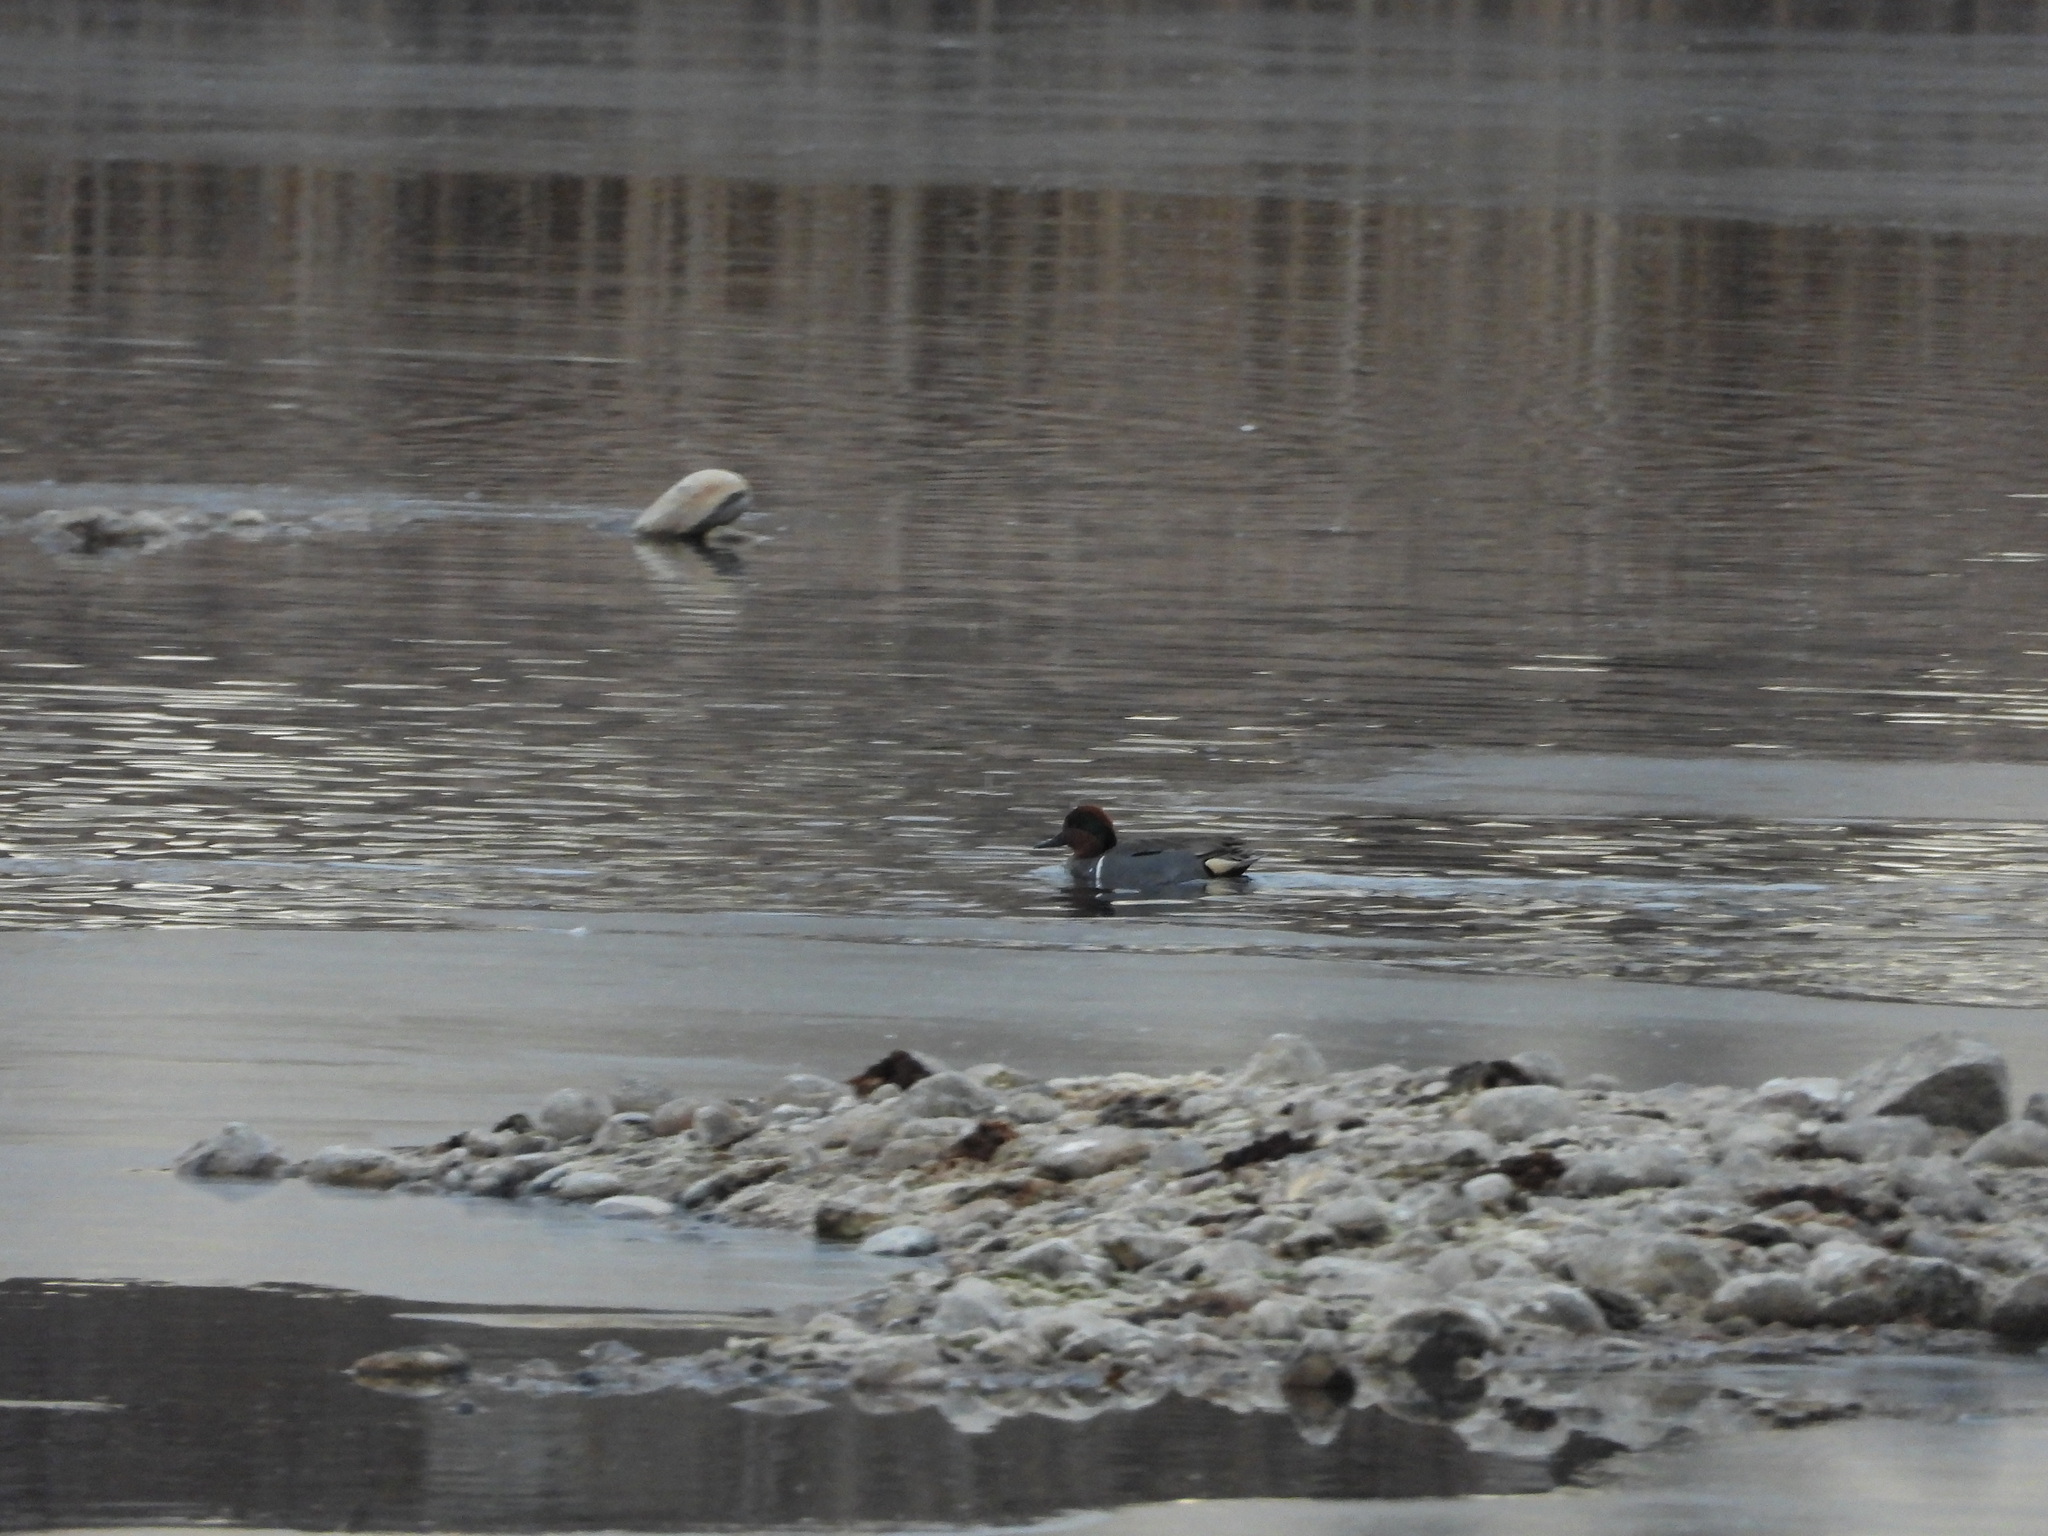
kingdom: Animalia
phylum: Chordata
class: Aves
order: Anseriformes
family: Anatidae
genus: Anas
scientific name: Anas crecca
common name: Eurasian teal
